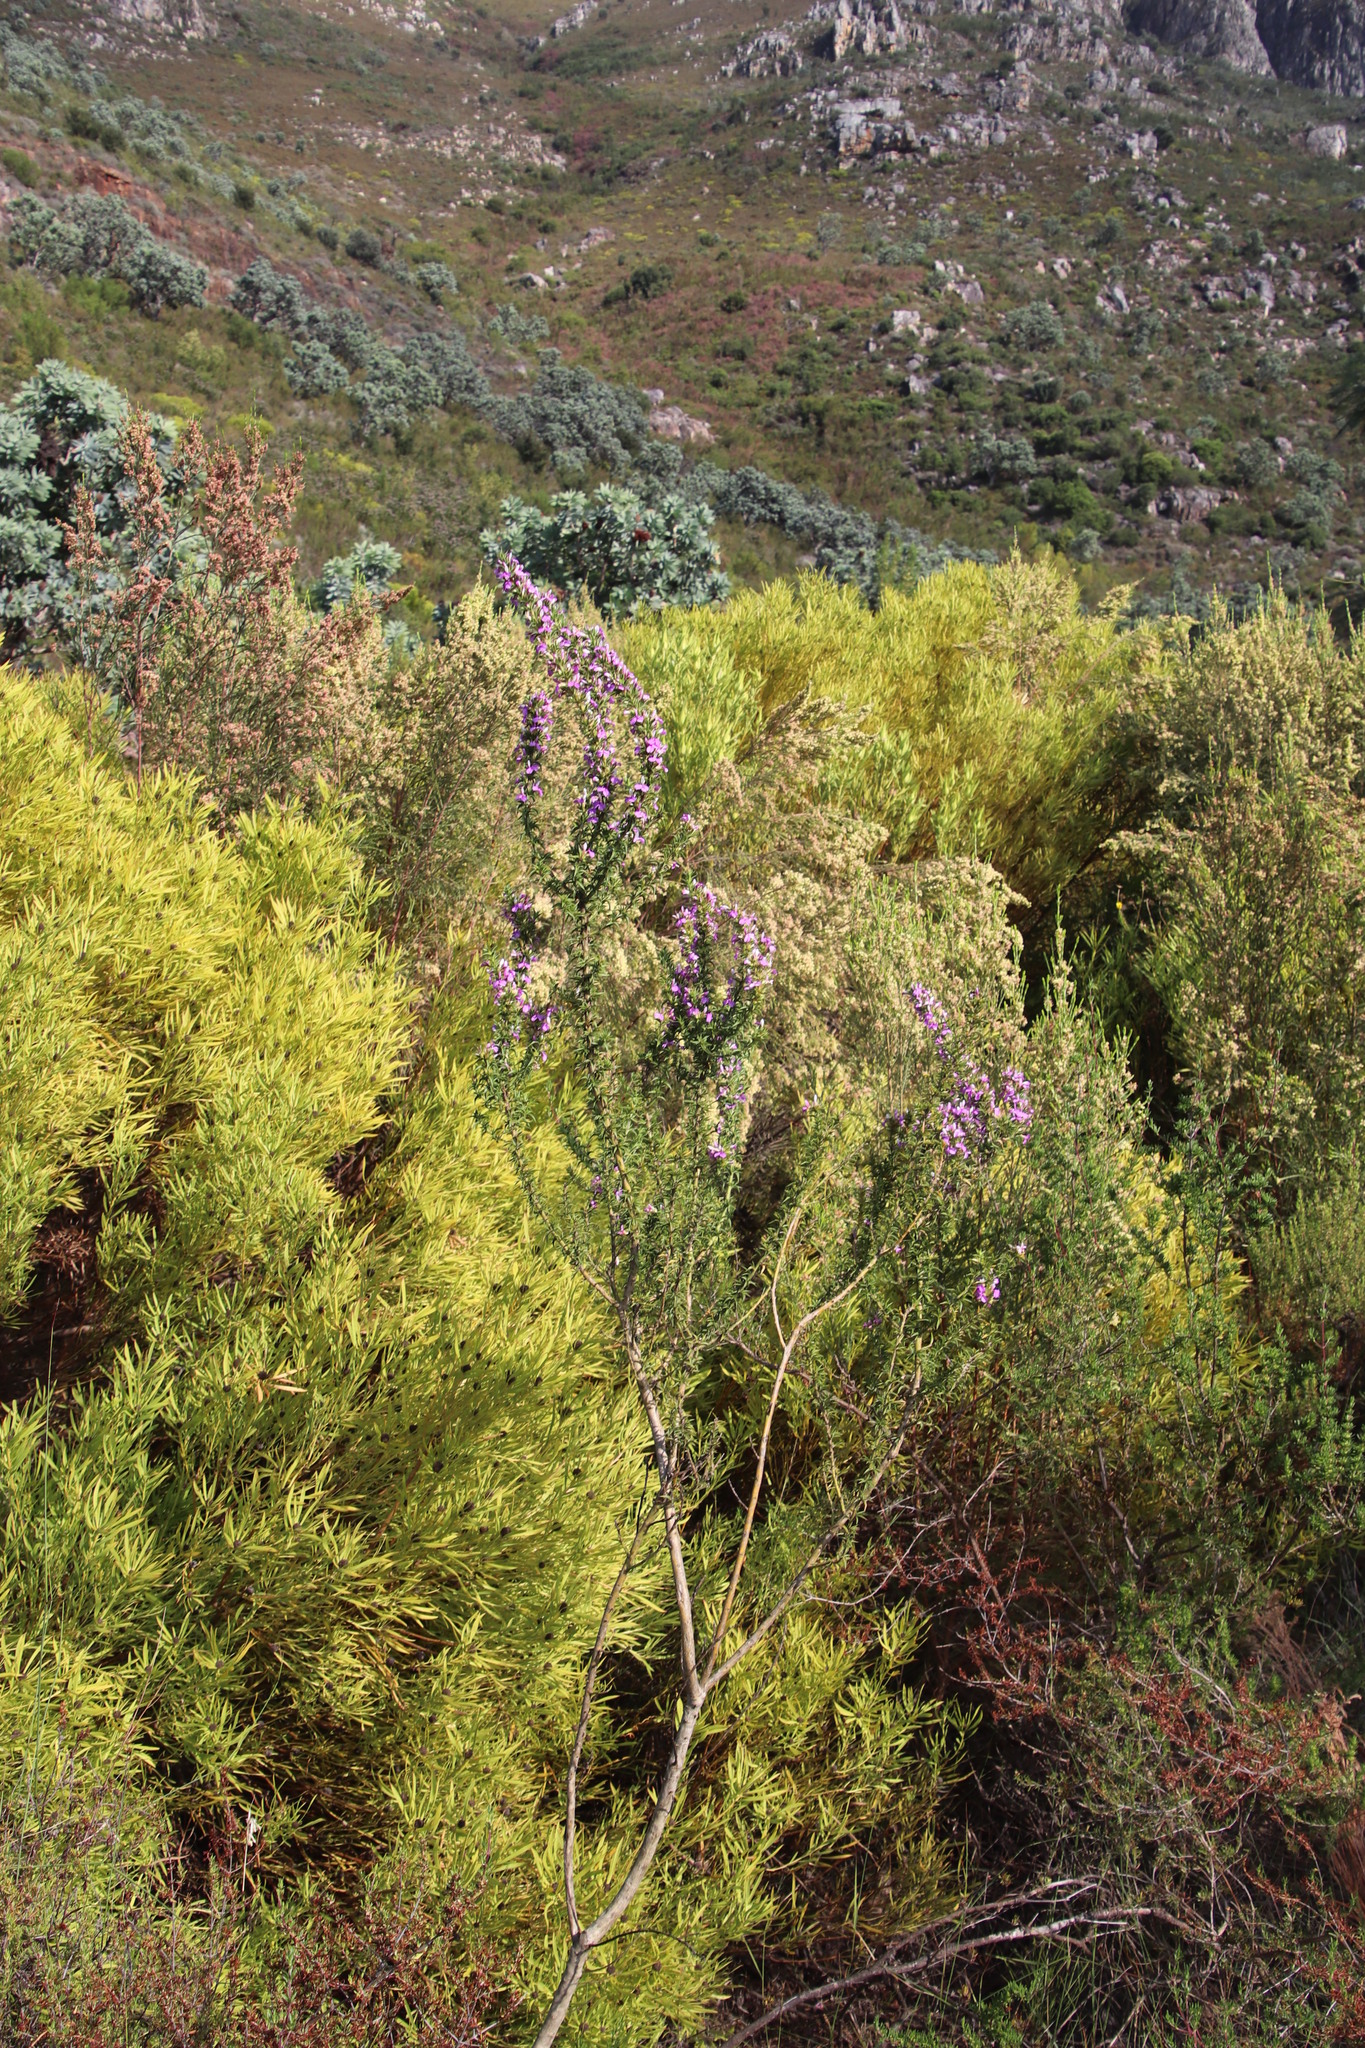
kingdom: Plantae
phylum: Tracheophyta
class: Magnoliopsida
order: Fabales
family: Polygalaceae
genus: Muraltia
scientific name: Muraltia heisteria
